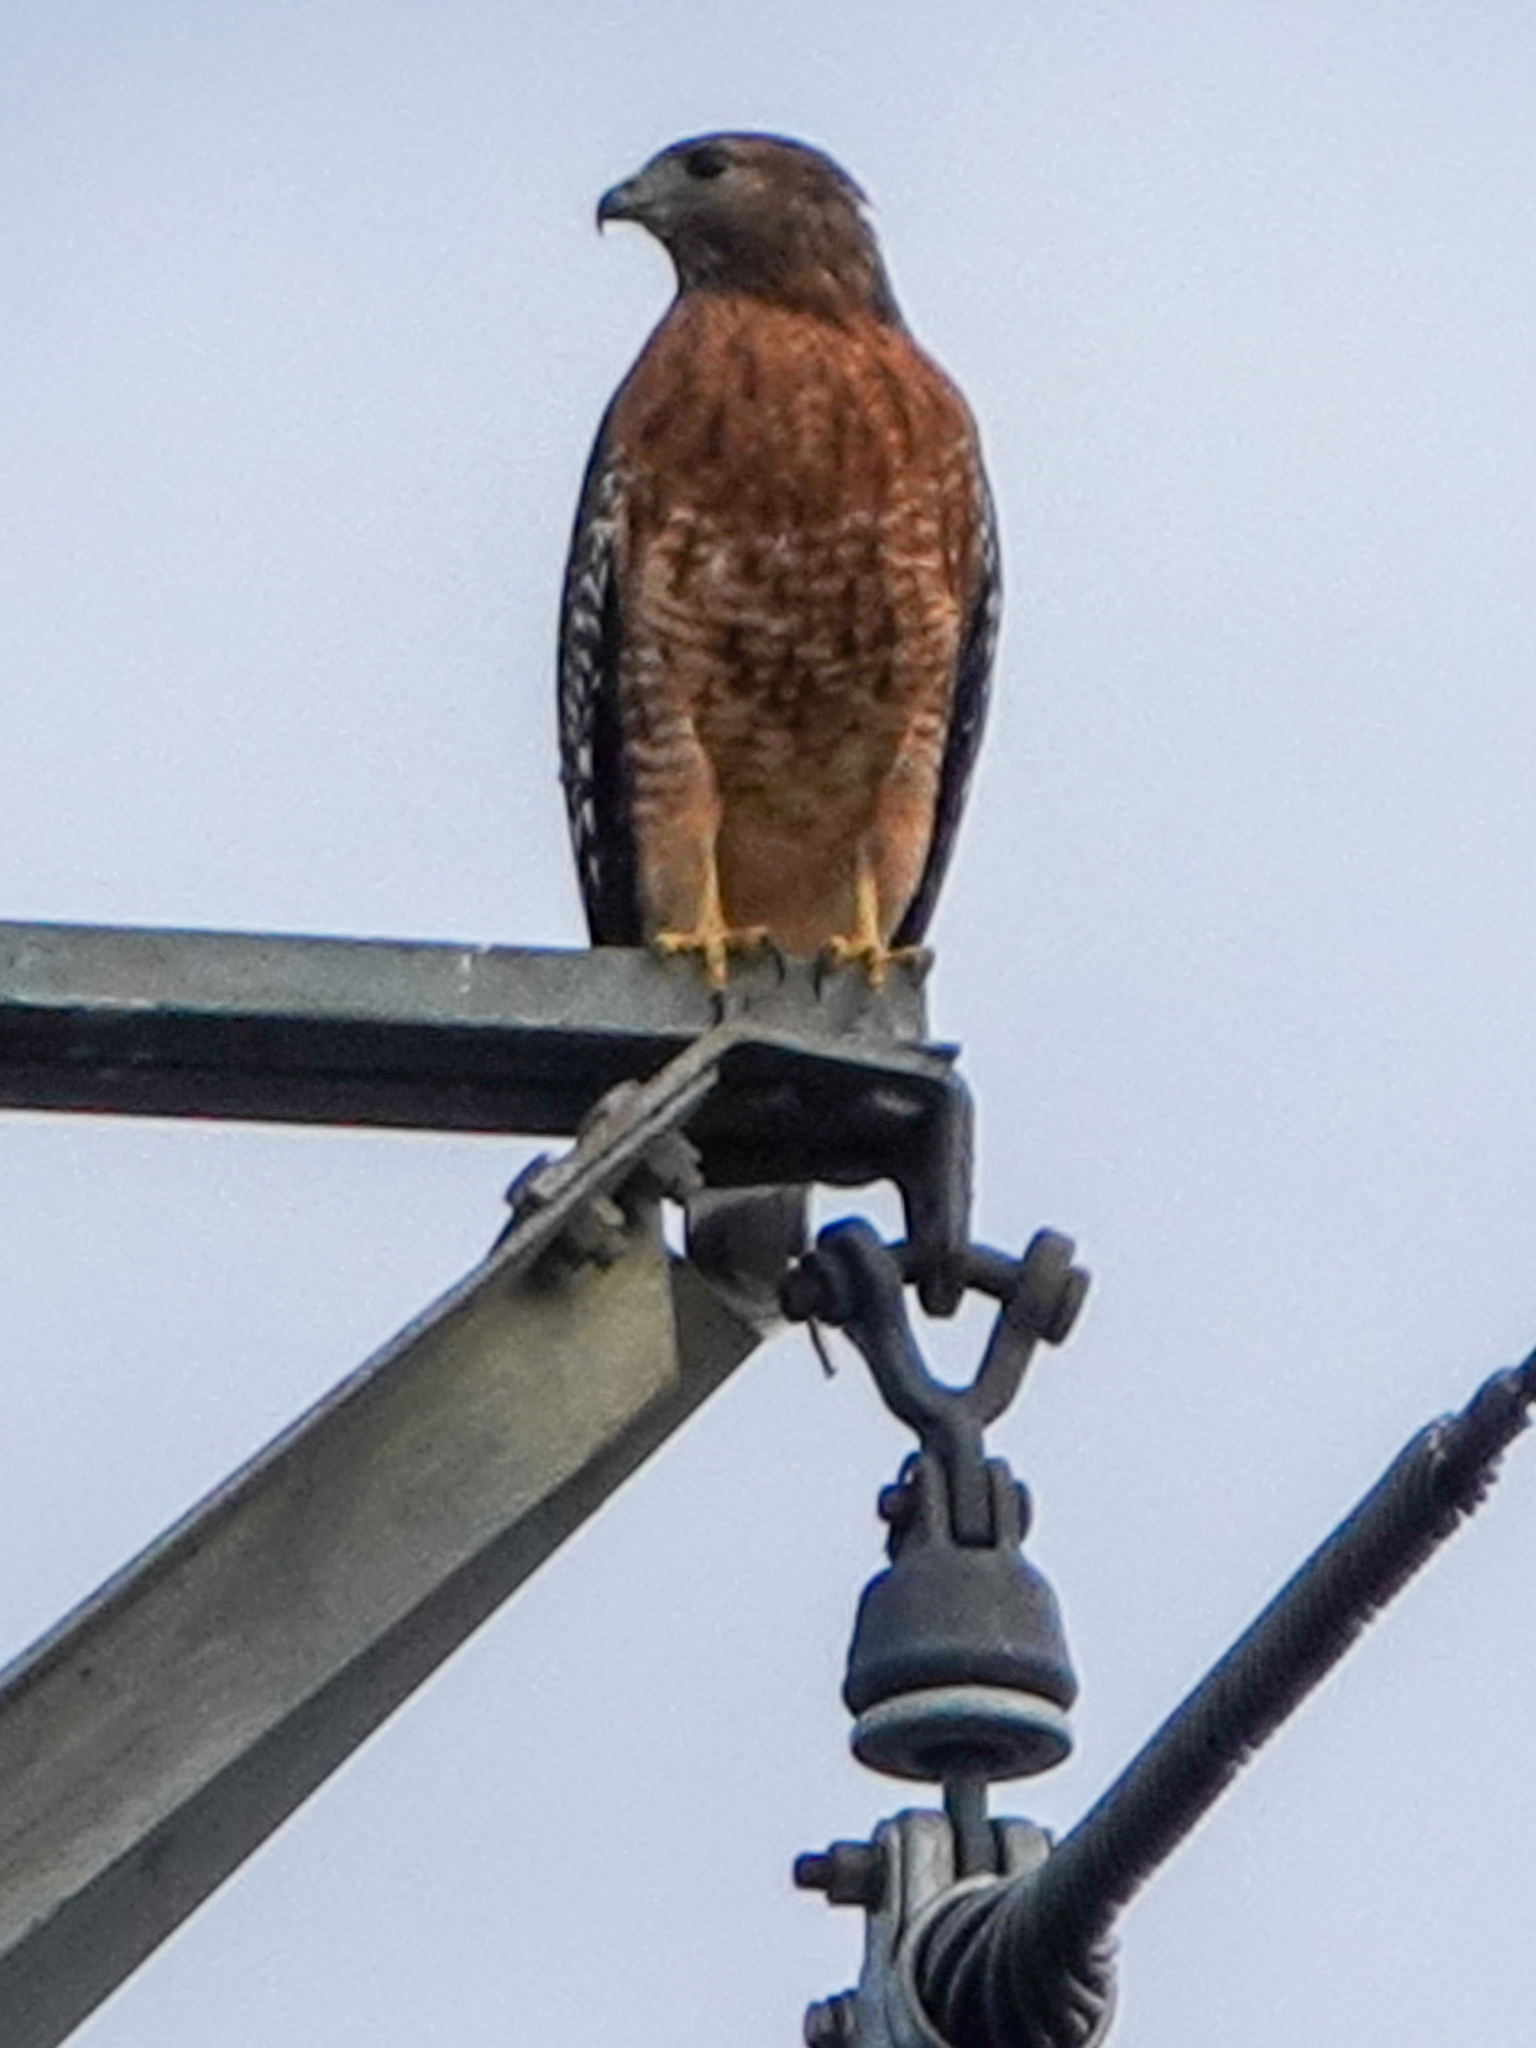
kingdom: Animalia
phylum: Chordata
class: Aves
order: Accipitriformes
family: Accipitridae
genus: Buteo
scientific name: Buteo lineatus
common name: Red-shouldered hawk
